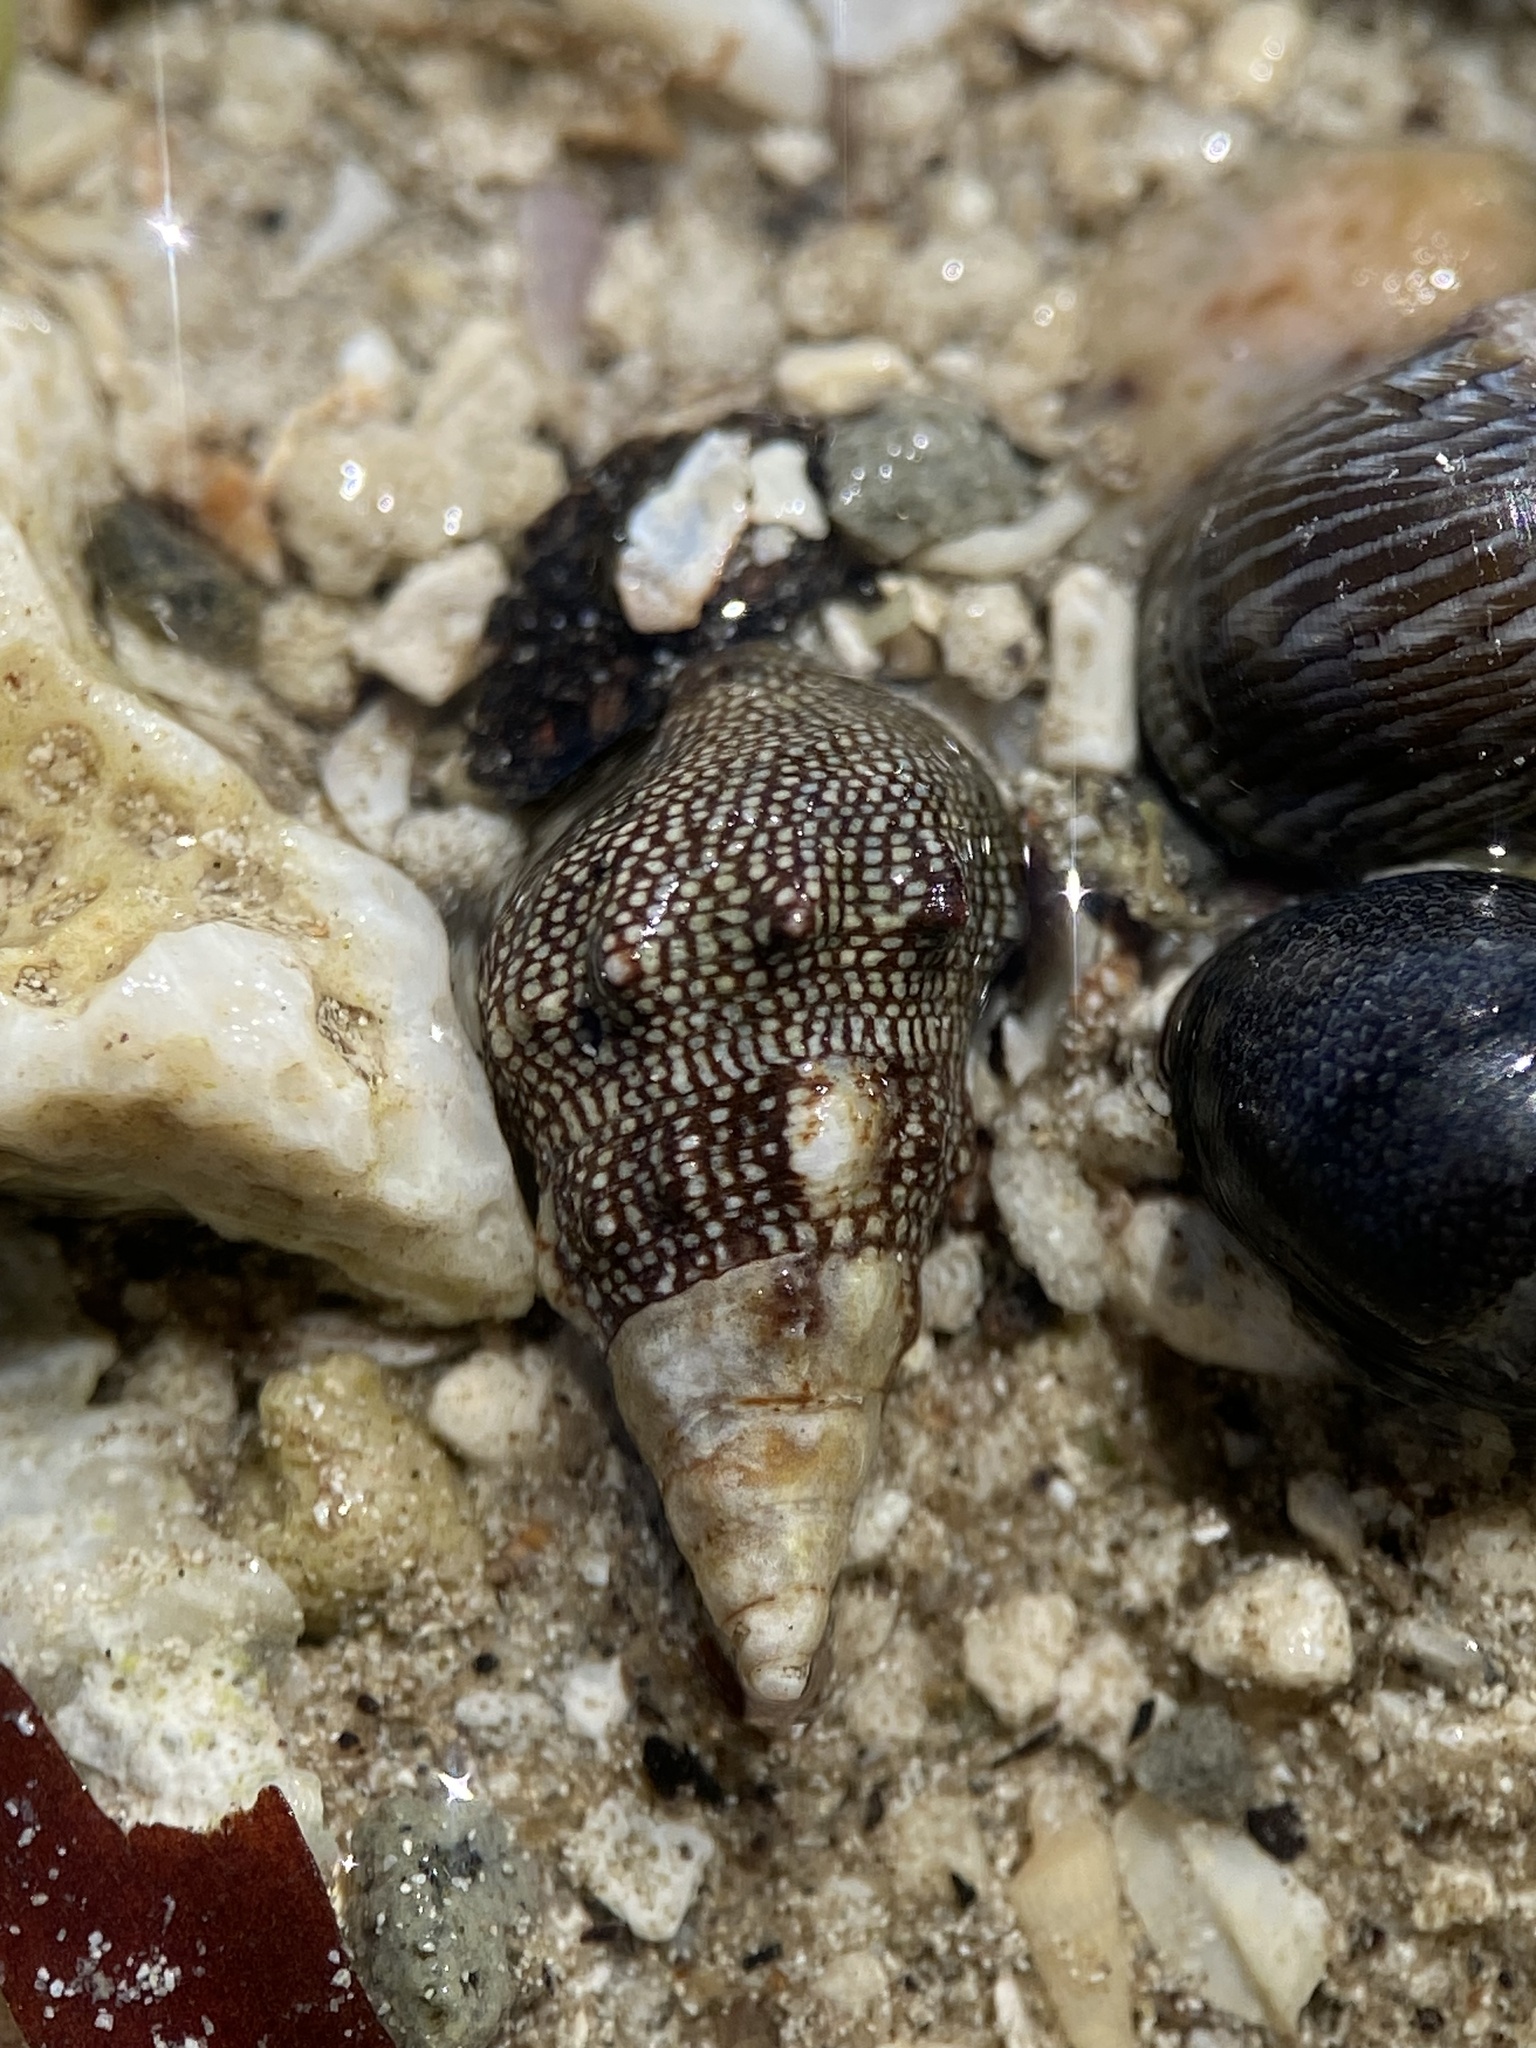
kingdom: Animalia
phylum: Mollusca
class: Gastropoda
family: Cerithiidae
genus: Cerithium
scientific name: Cerithium stercusmuscarum
